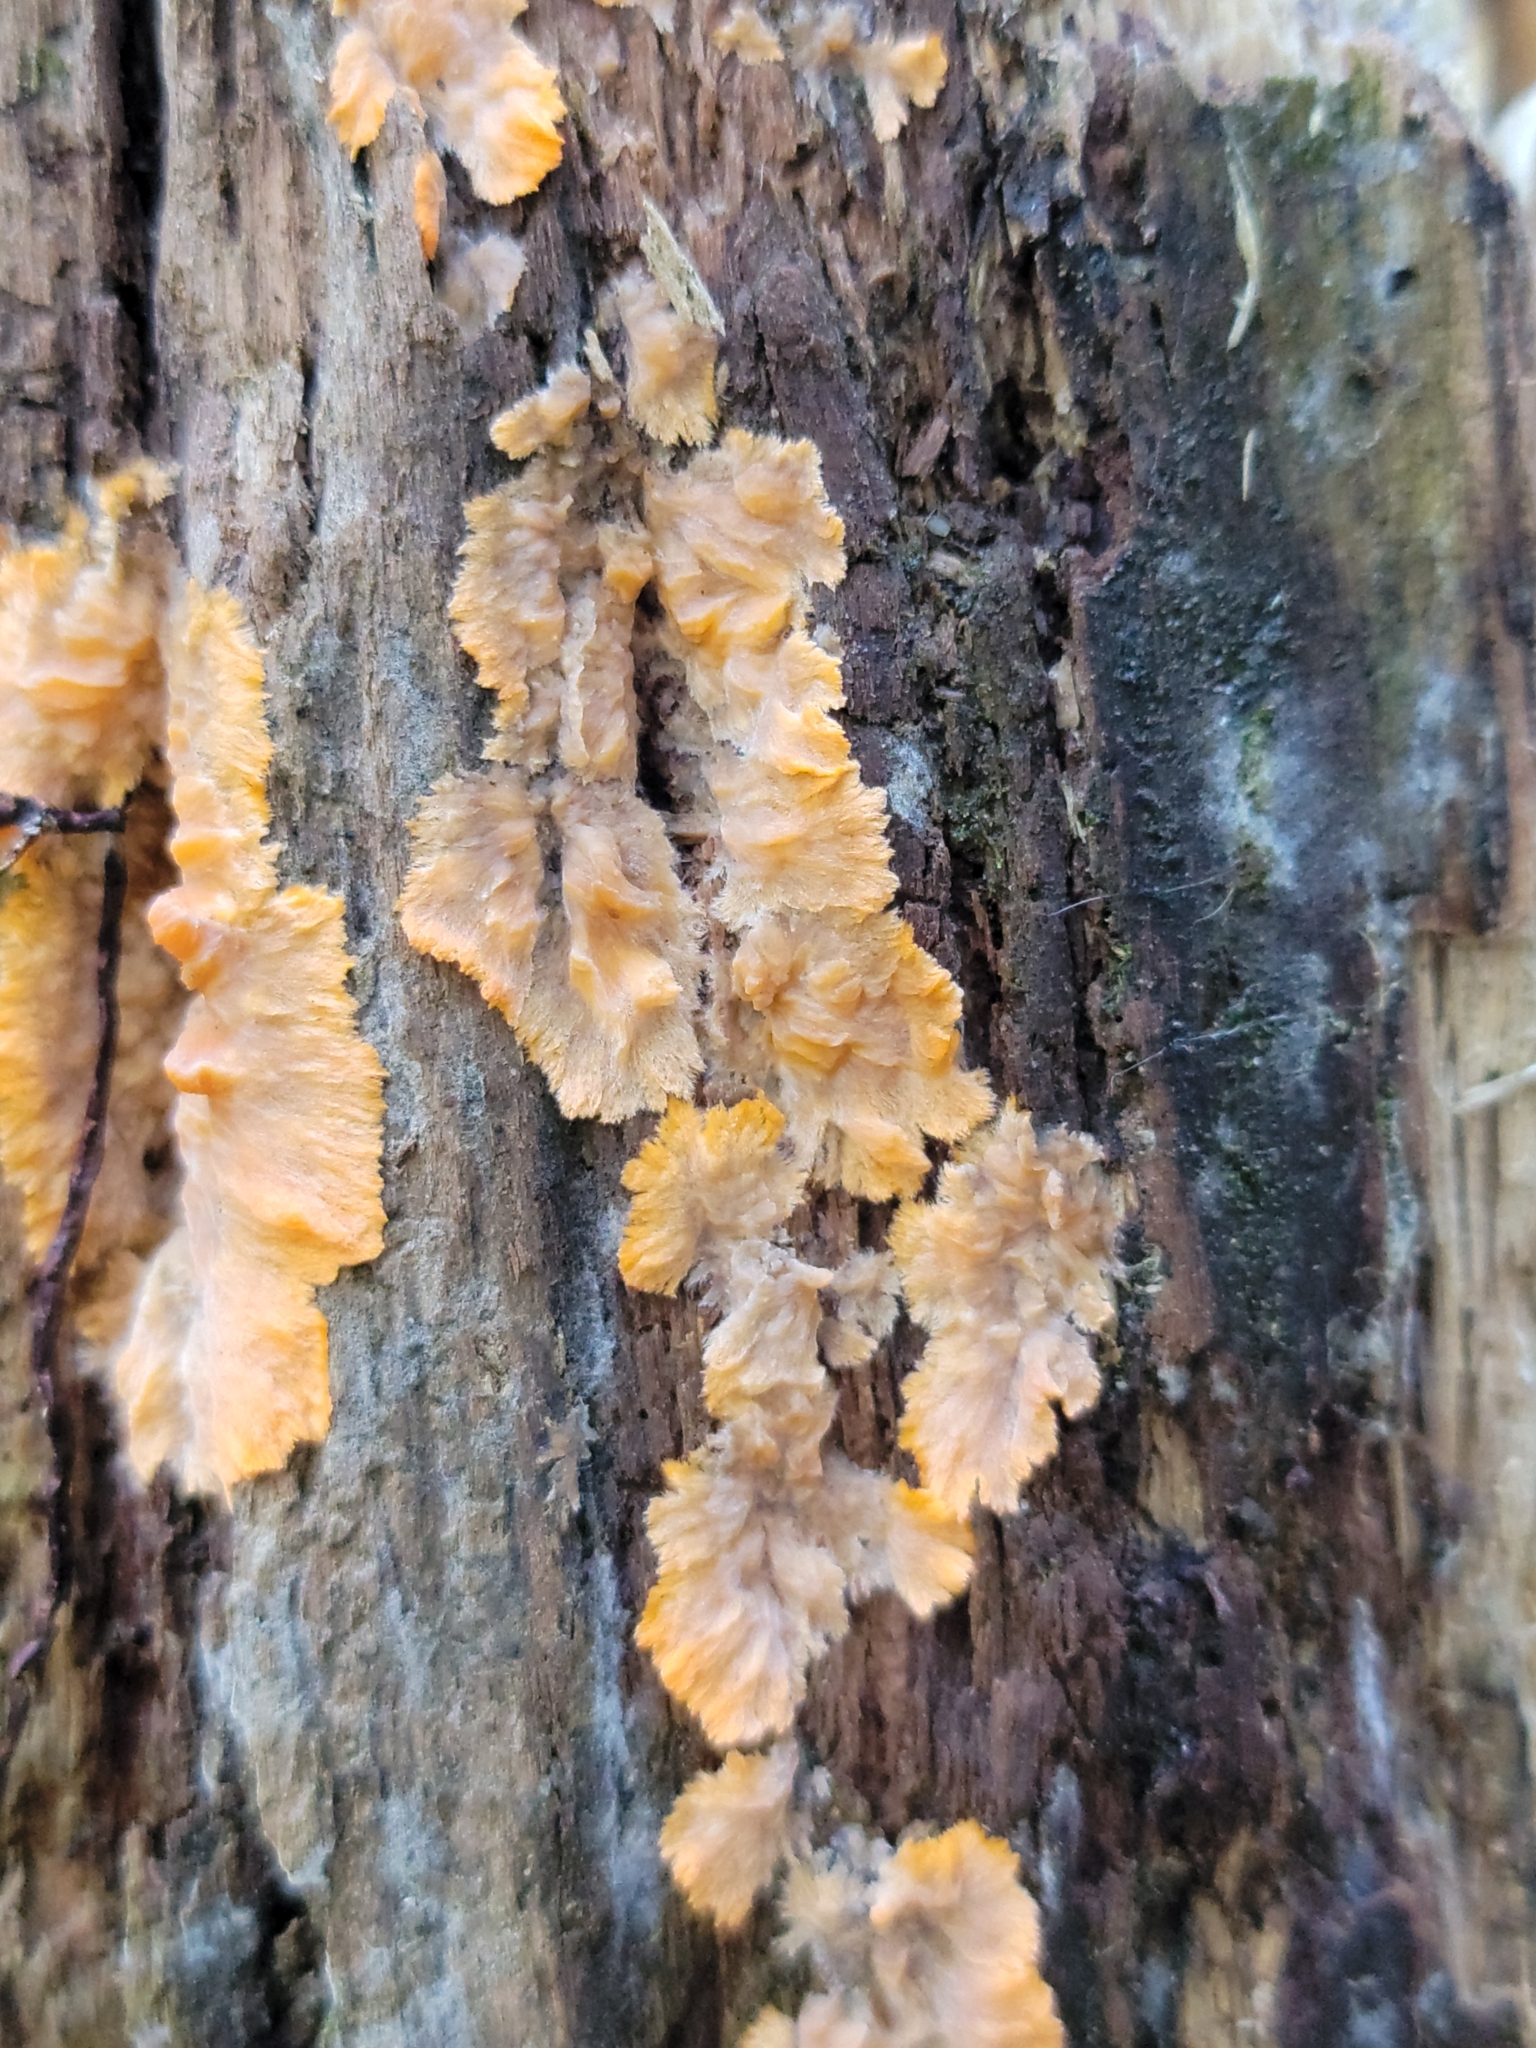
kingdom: Fungi
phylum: Basidiomycota
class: Agaricomycetes
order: Polyporales
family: Meruliaceae
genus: Phlebia
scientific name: Phlebia radiata
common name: Wrinkled crust
